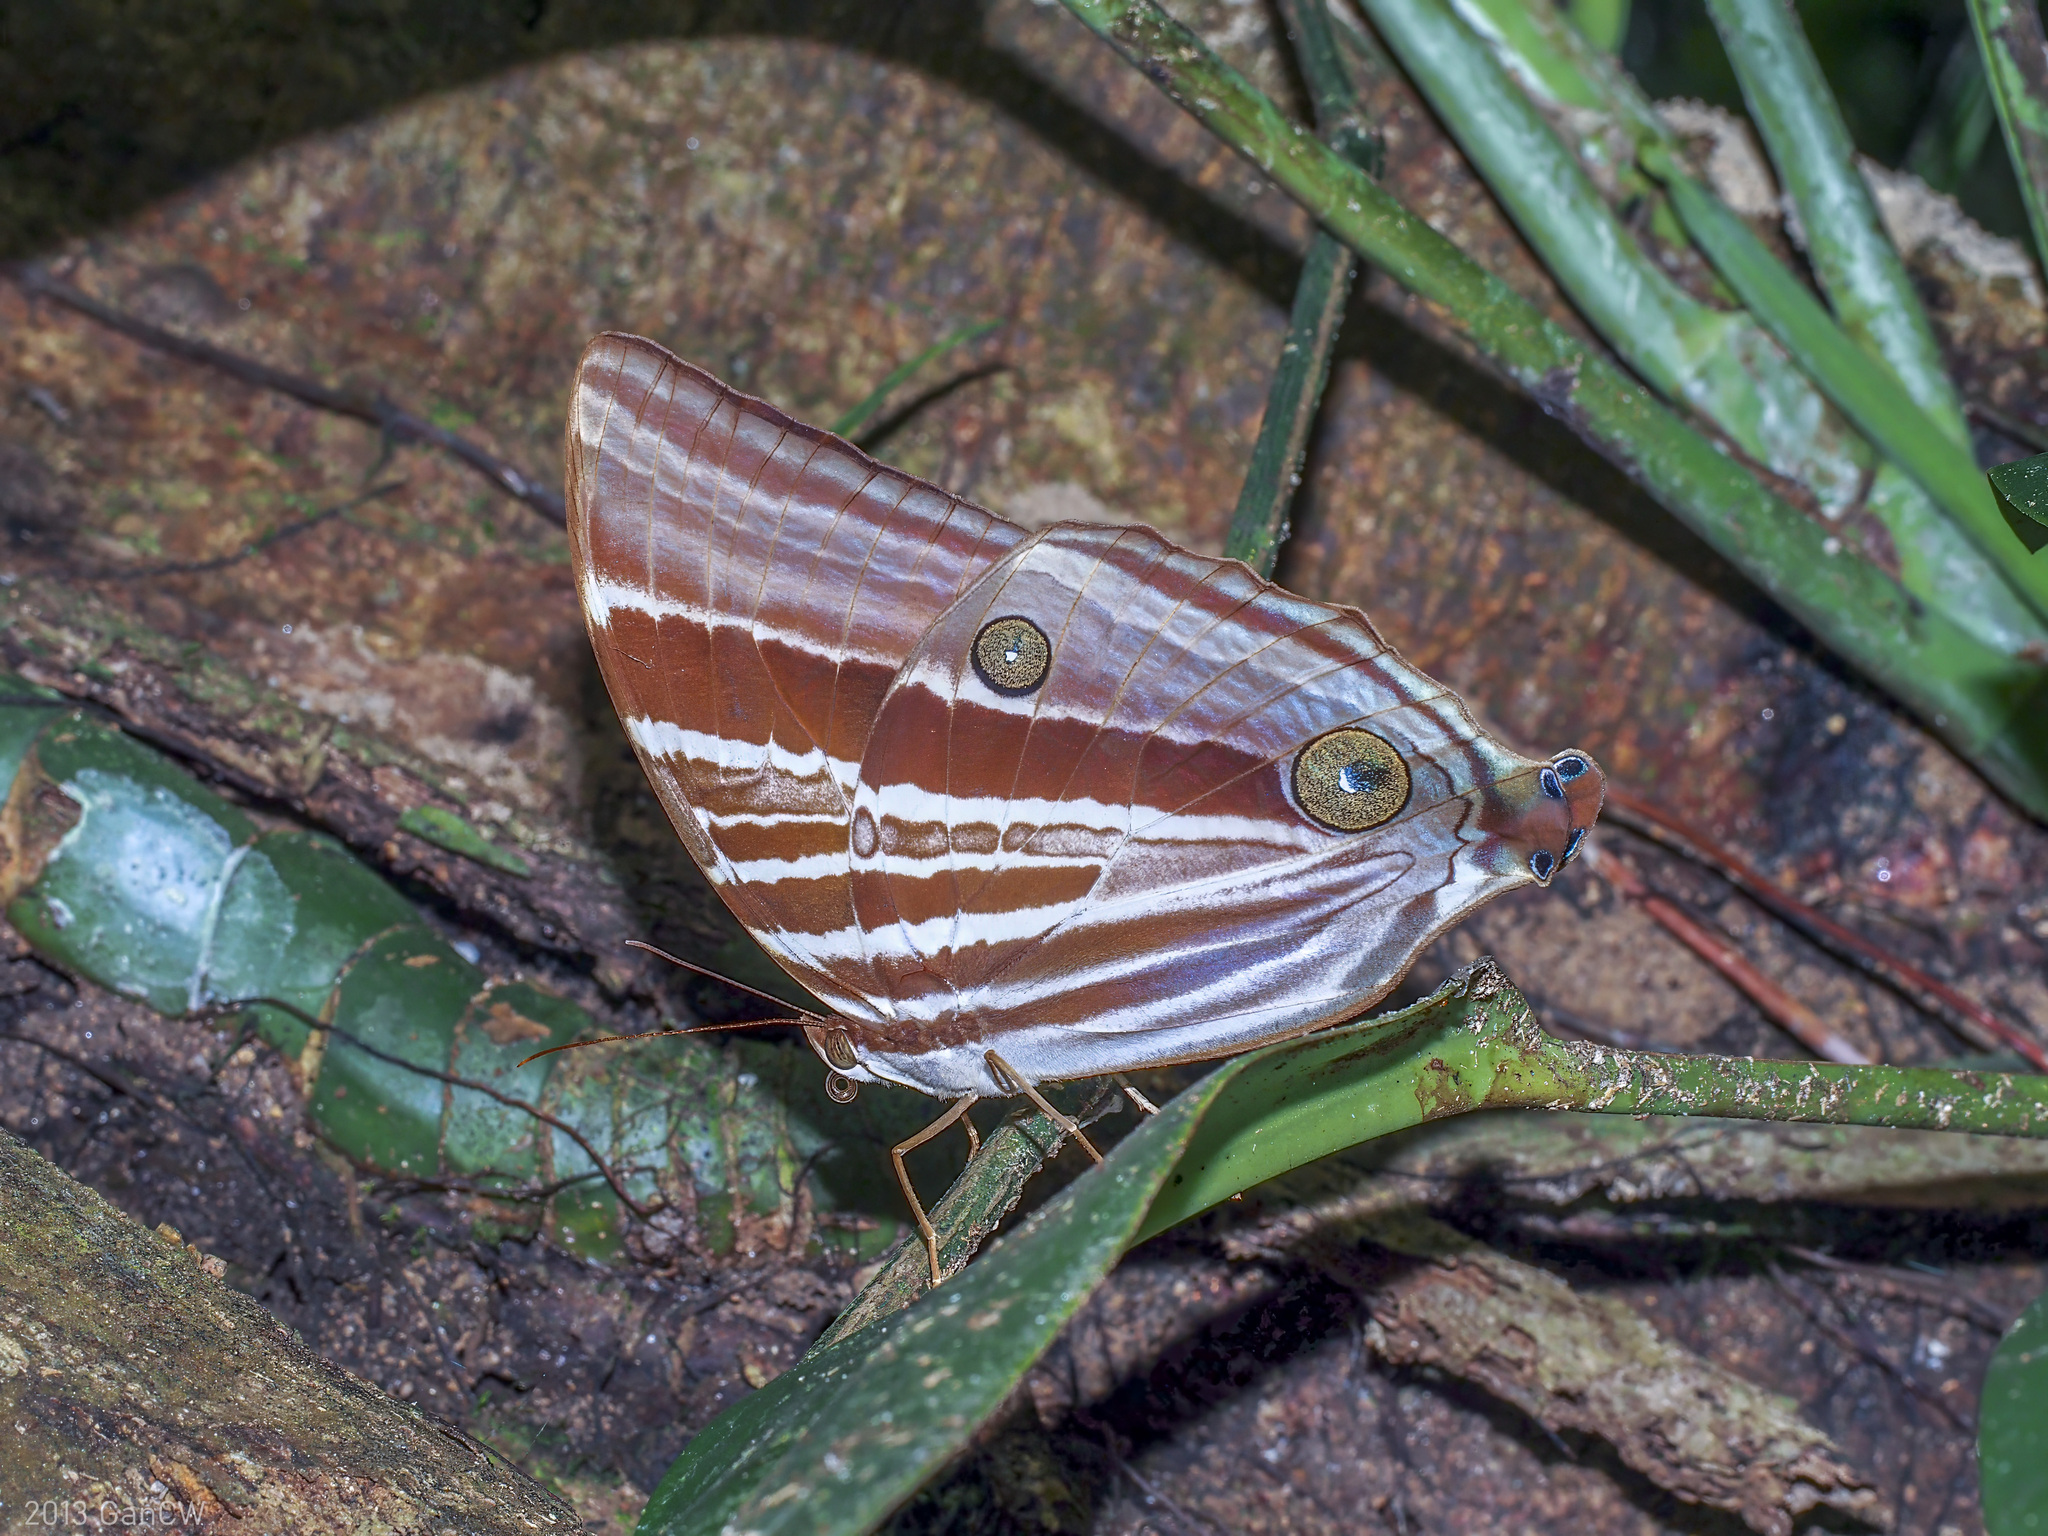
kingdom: Animalia
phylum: Arthropoda
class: Insecta
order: Lepidoptera
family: Nymphalidae
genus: Amathusia
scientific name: Amathusia perakana
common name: Perak palm king
